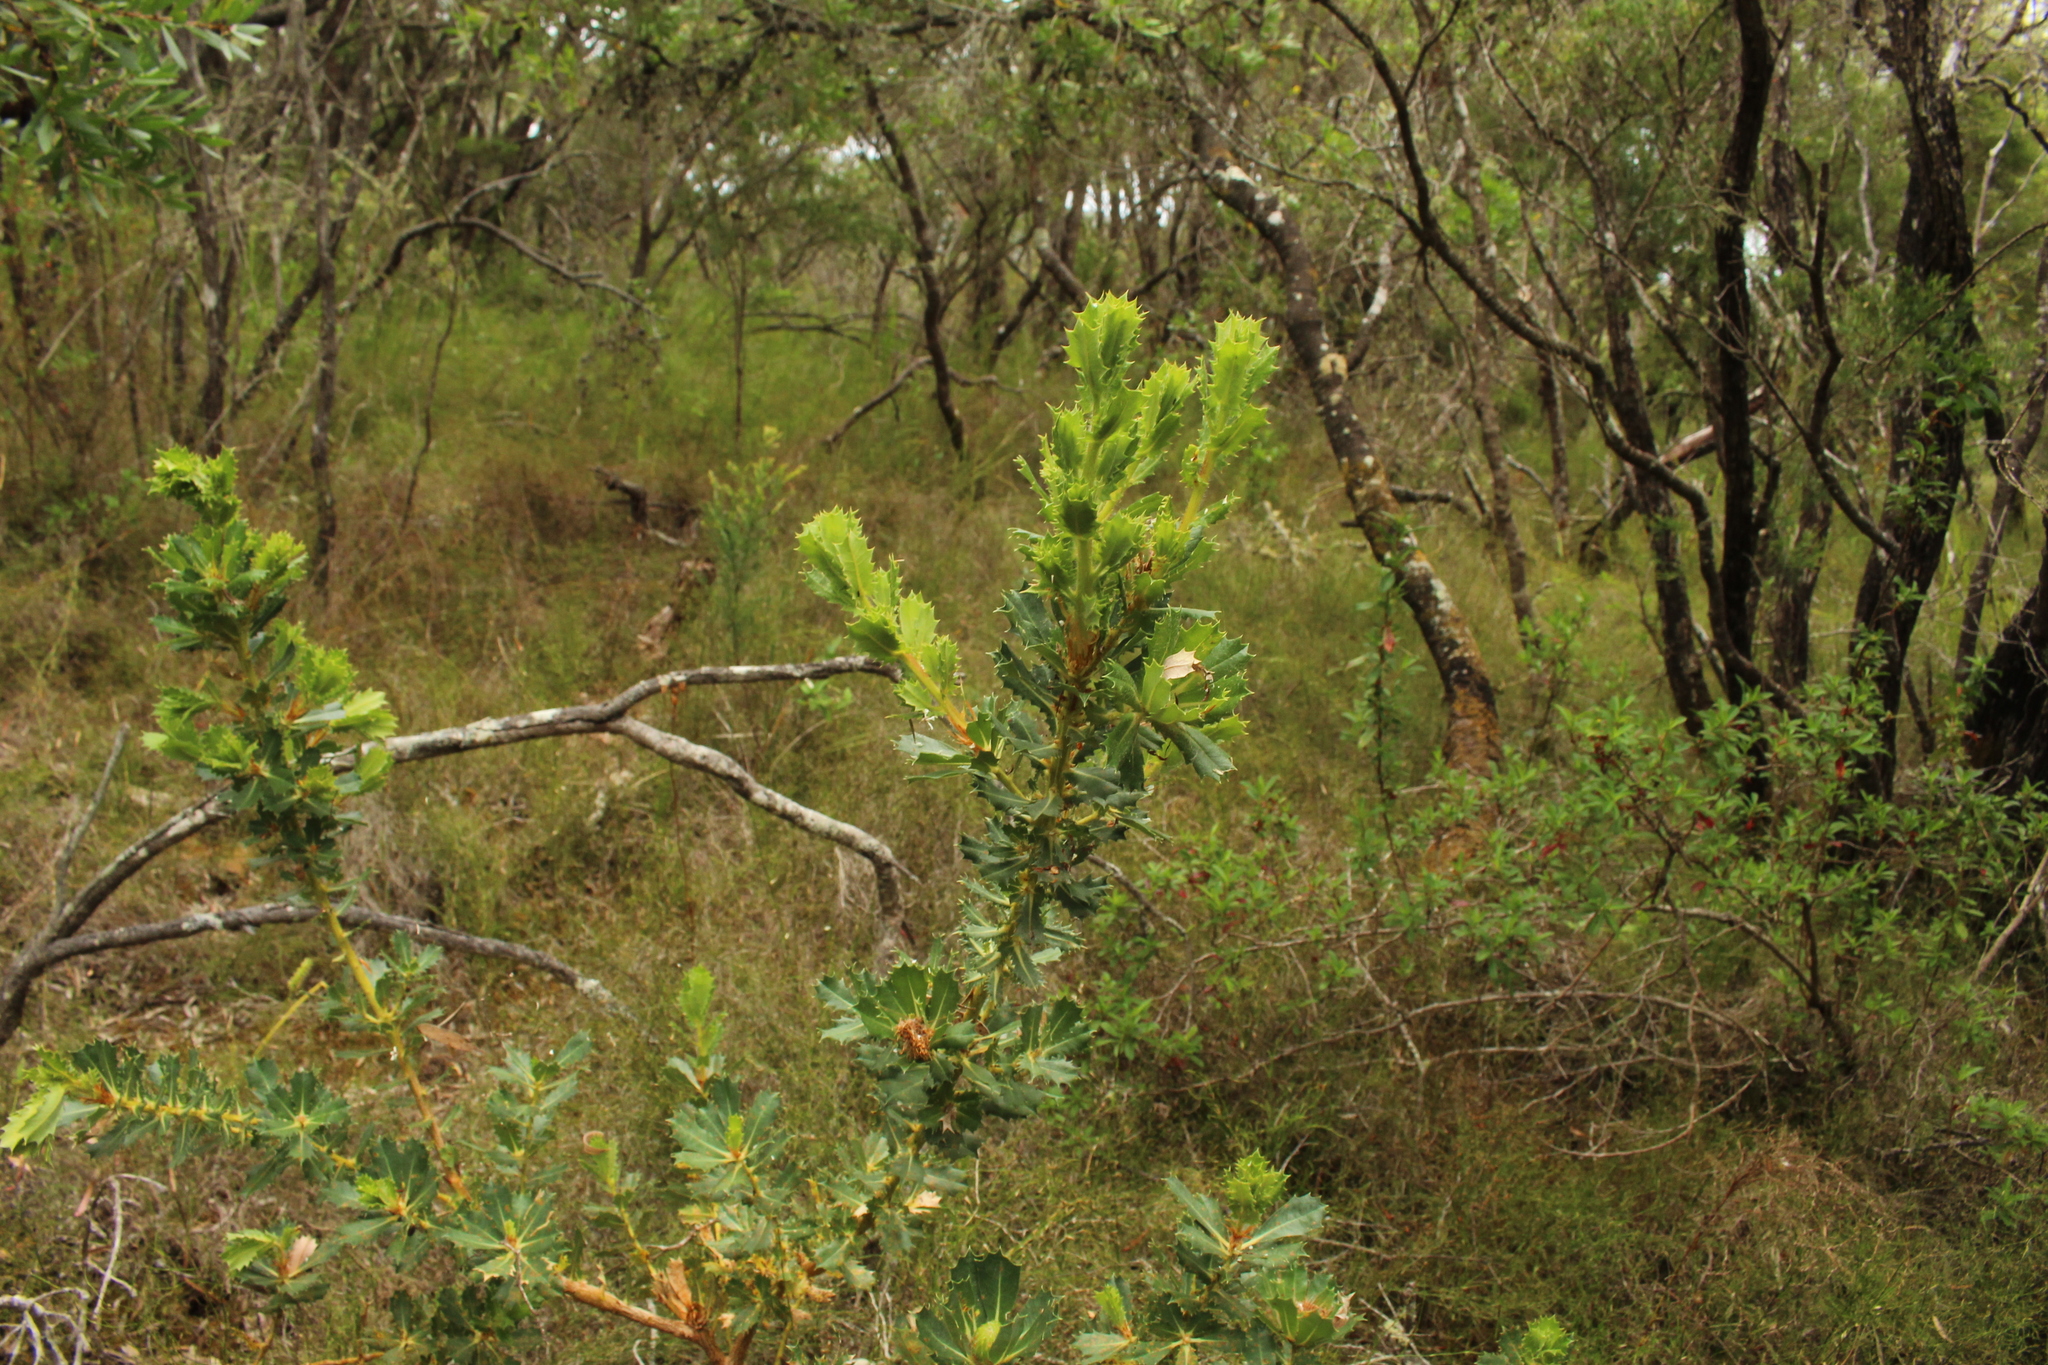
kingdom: Plantae
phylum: Tracheophyta
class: Magnoliopsida
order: Proteales
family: Proteaceae
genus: Banksia
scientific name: Banksia sessilis
